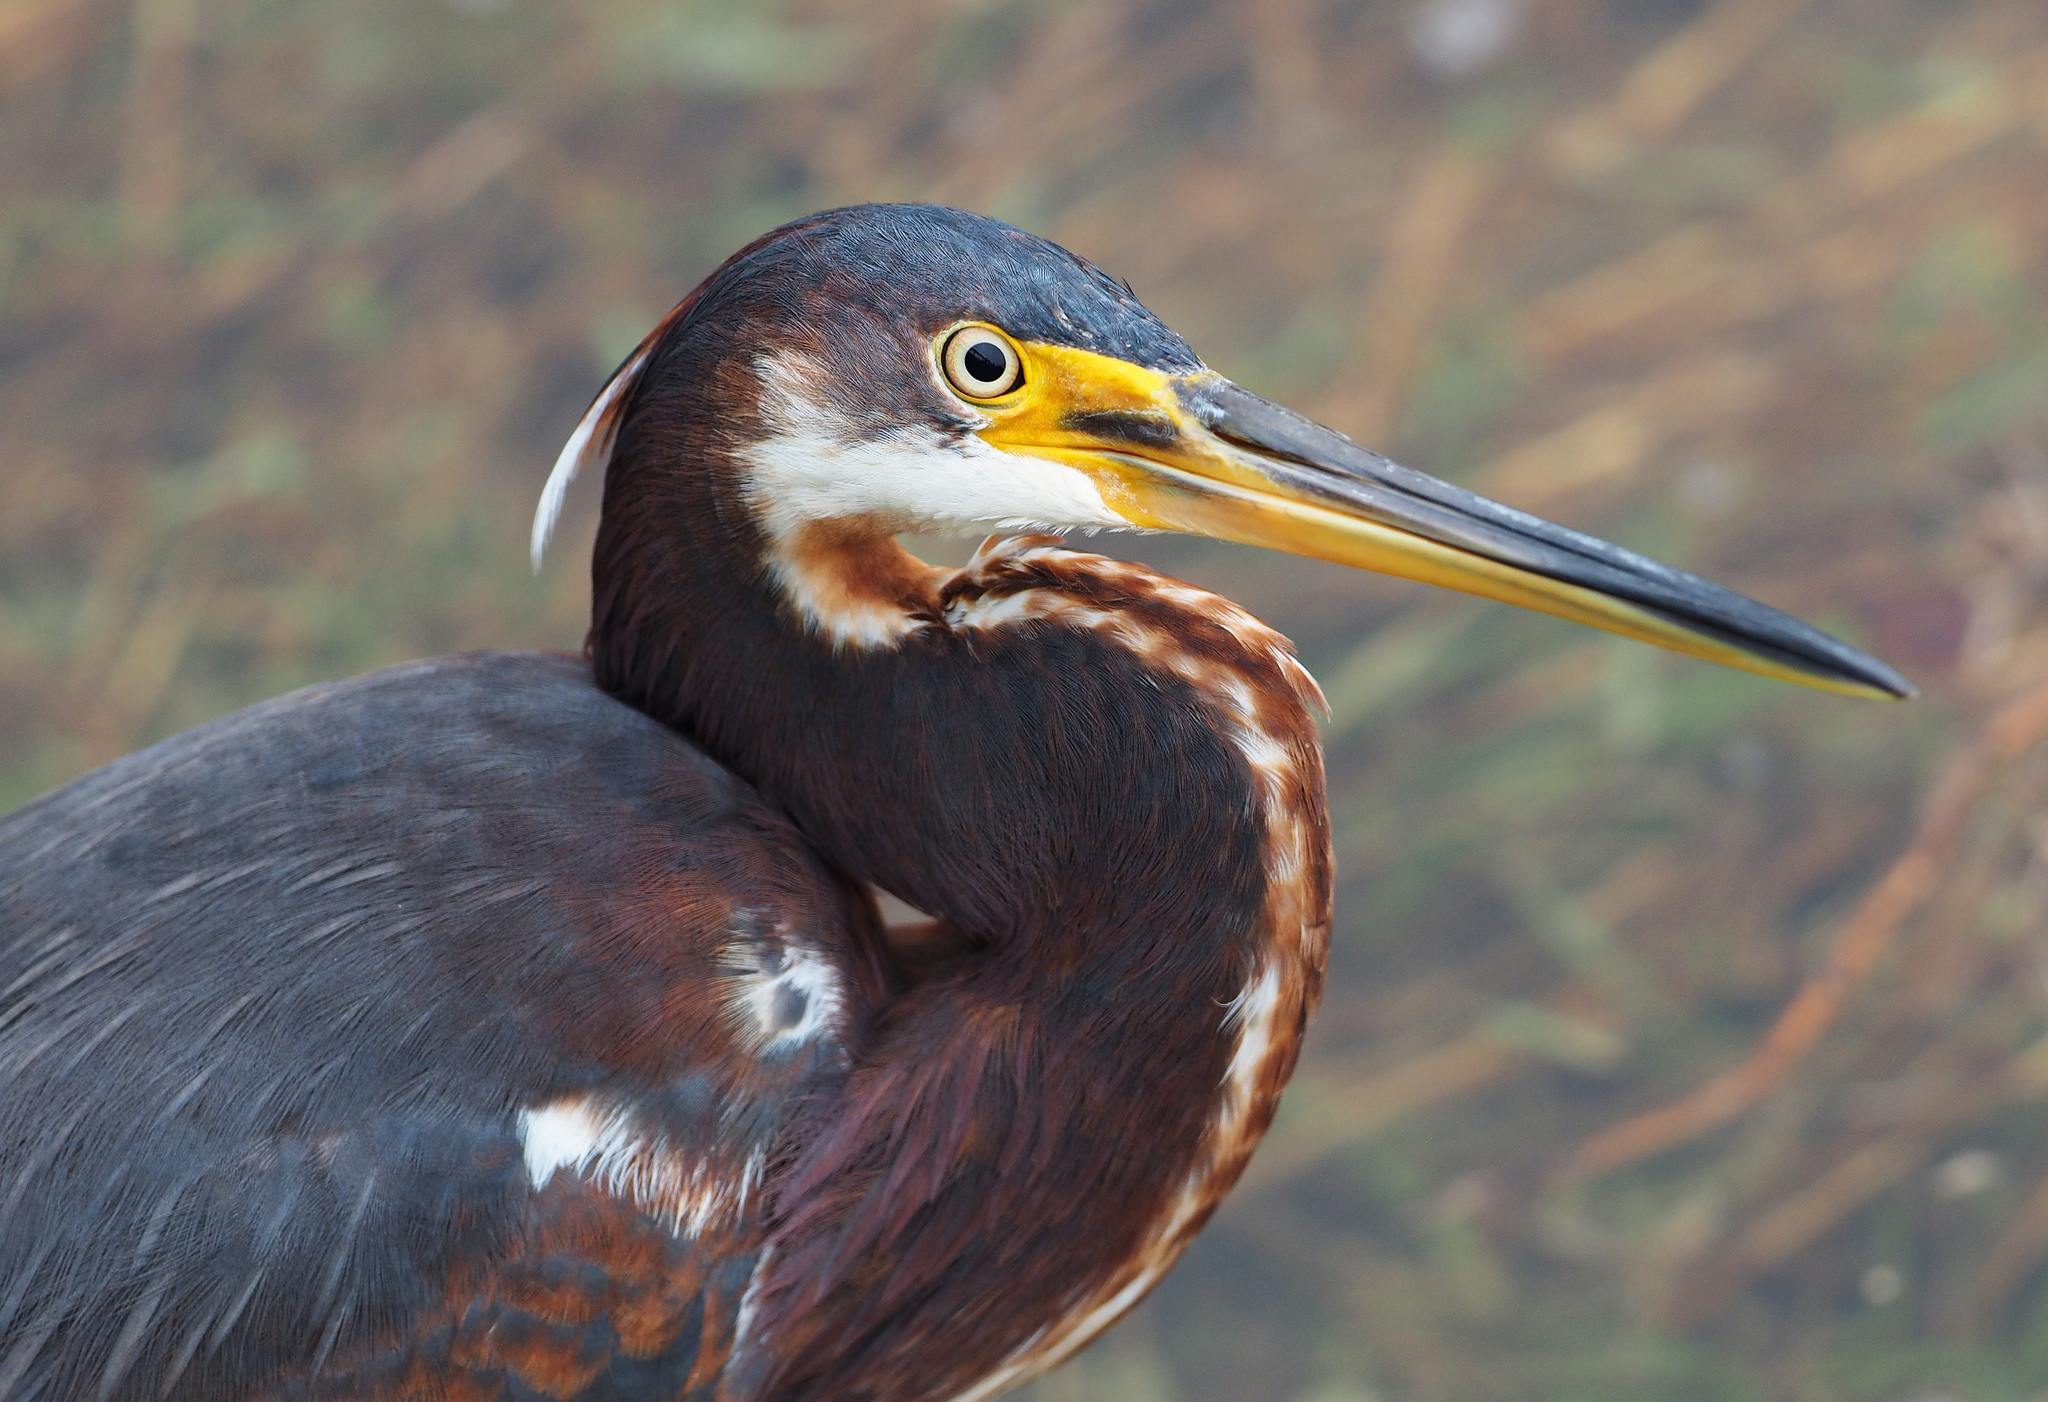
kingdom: Animalia
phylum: Chordata
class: Aves
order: Pelecaniformes
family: Ardeidae
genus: Egretta
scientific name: Egretta tricolor
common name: Tricolored heron
